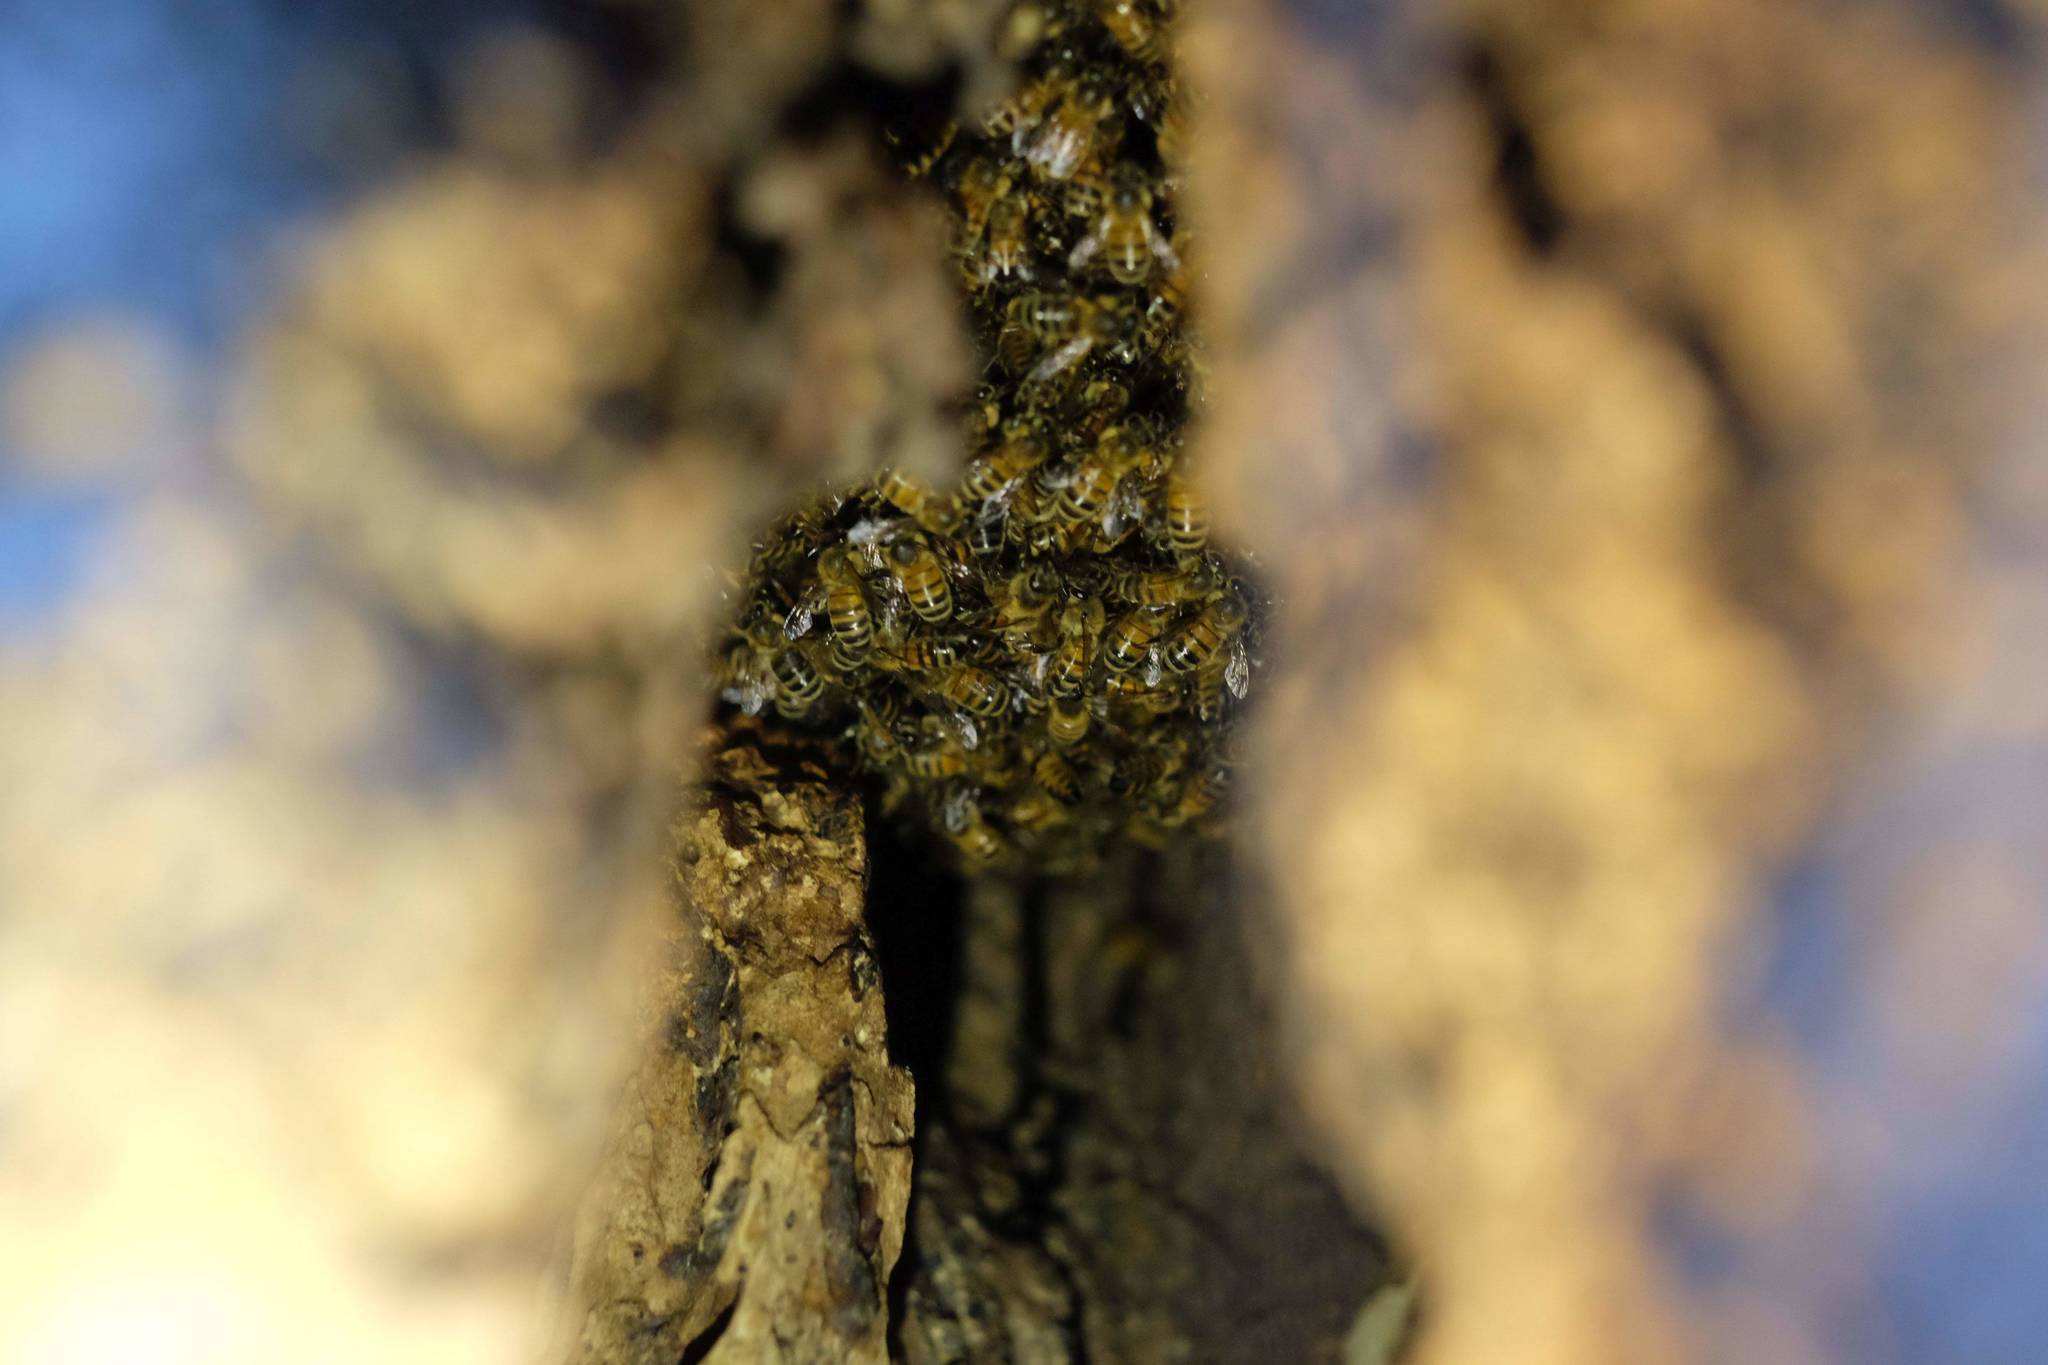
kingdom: Animalia
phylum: Arthropoda
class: Insecta
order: Hymenoptera
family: Apidae
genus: Apis
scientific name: Apis mellifera
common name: Honey bee
